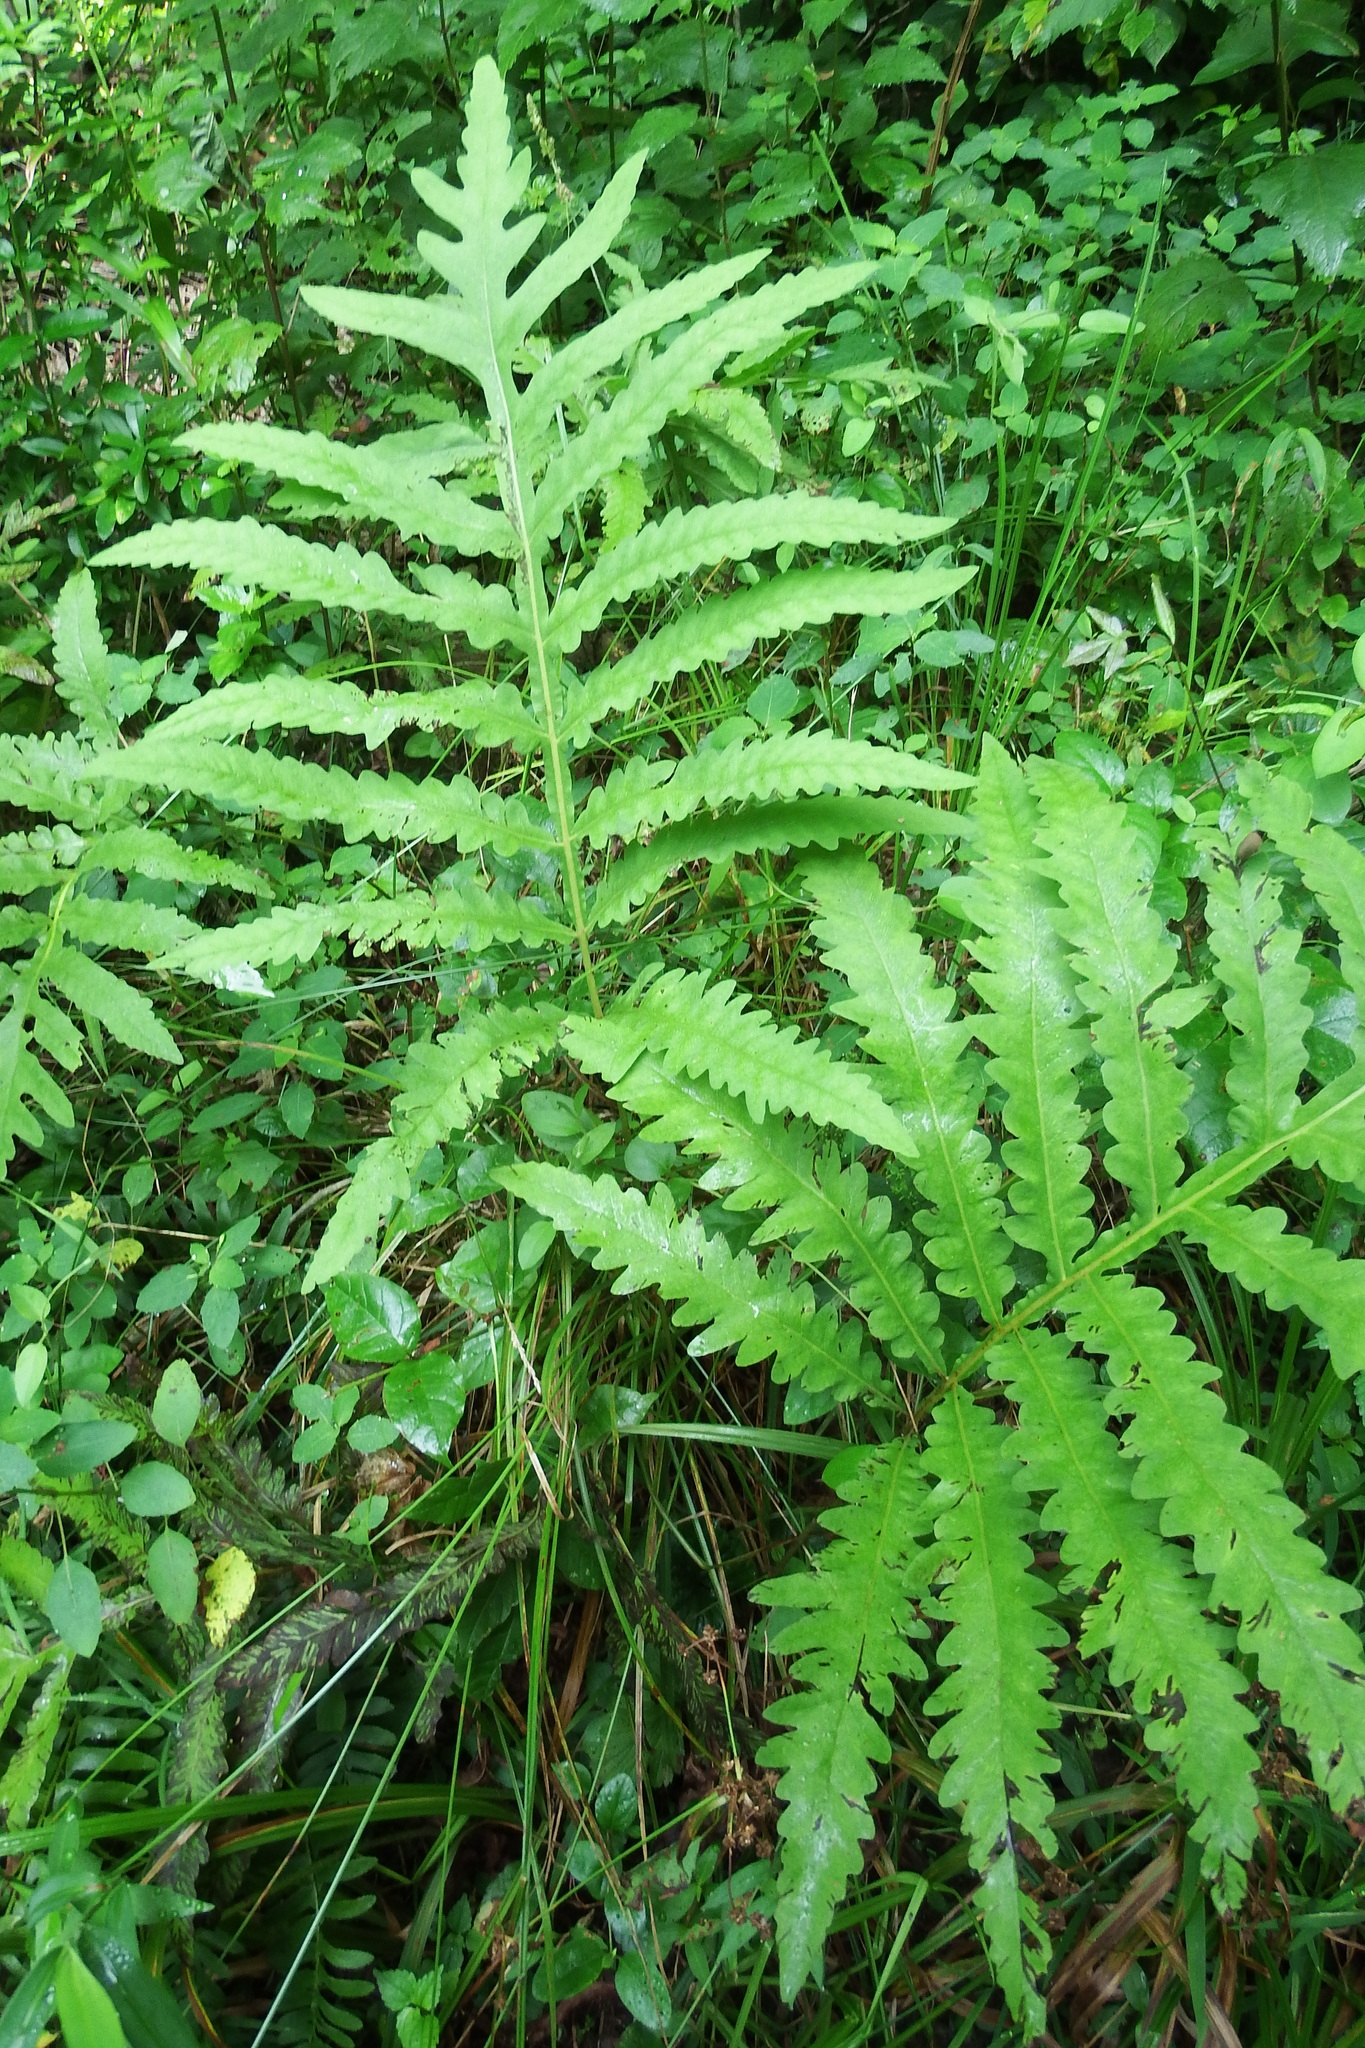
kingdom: Plantae
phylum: Tracheophyta
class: Polypodiopsida
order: Polypodiales
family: Onocleaceae
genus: Onoclea
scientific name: Onoclea sensibilis
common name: Sensitive fern
